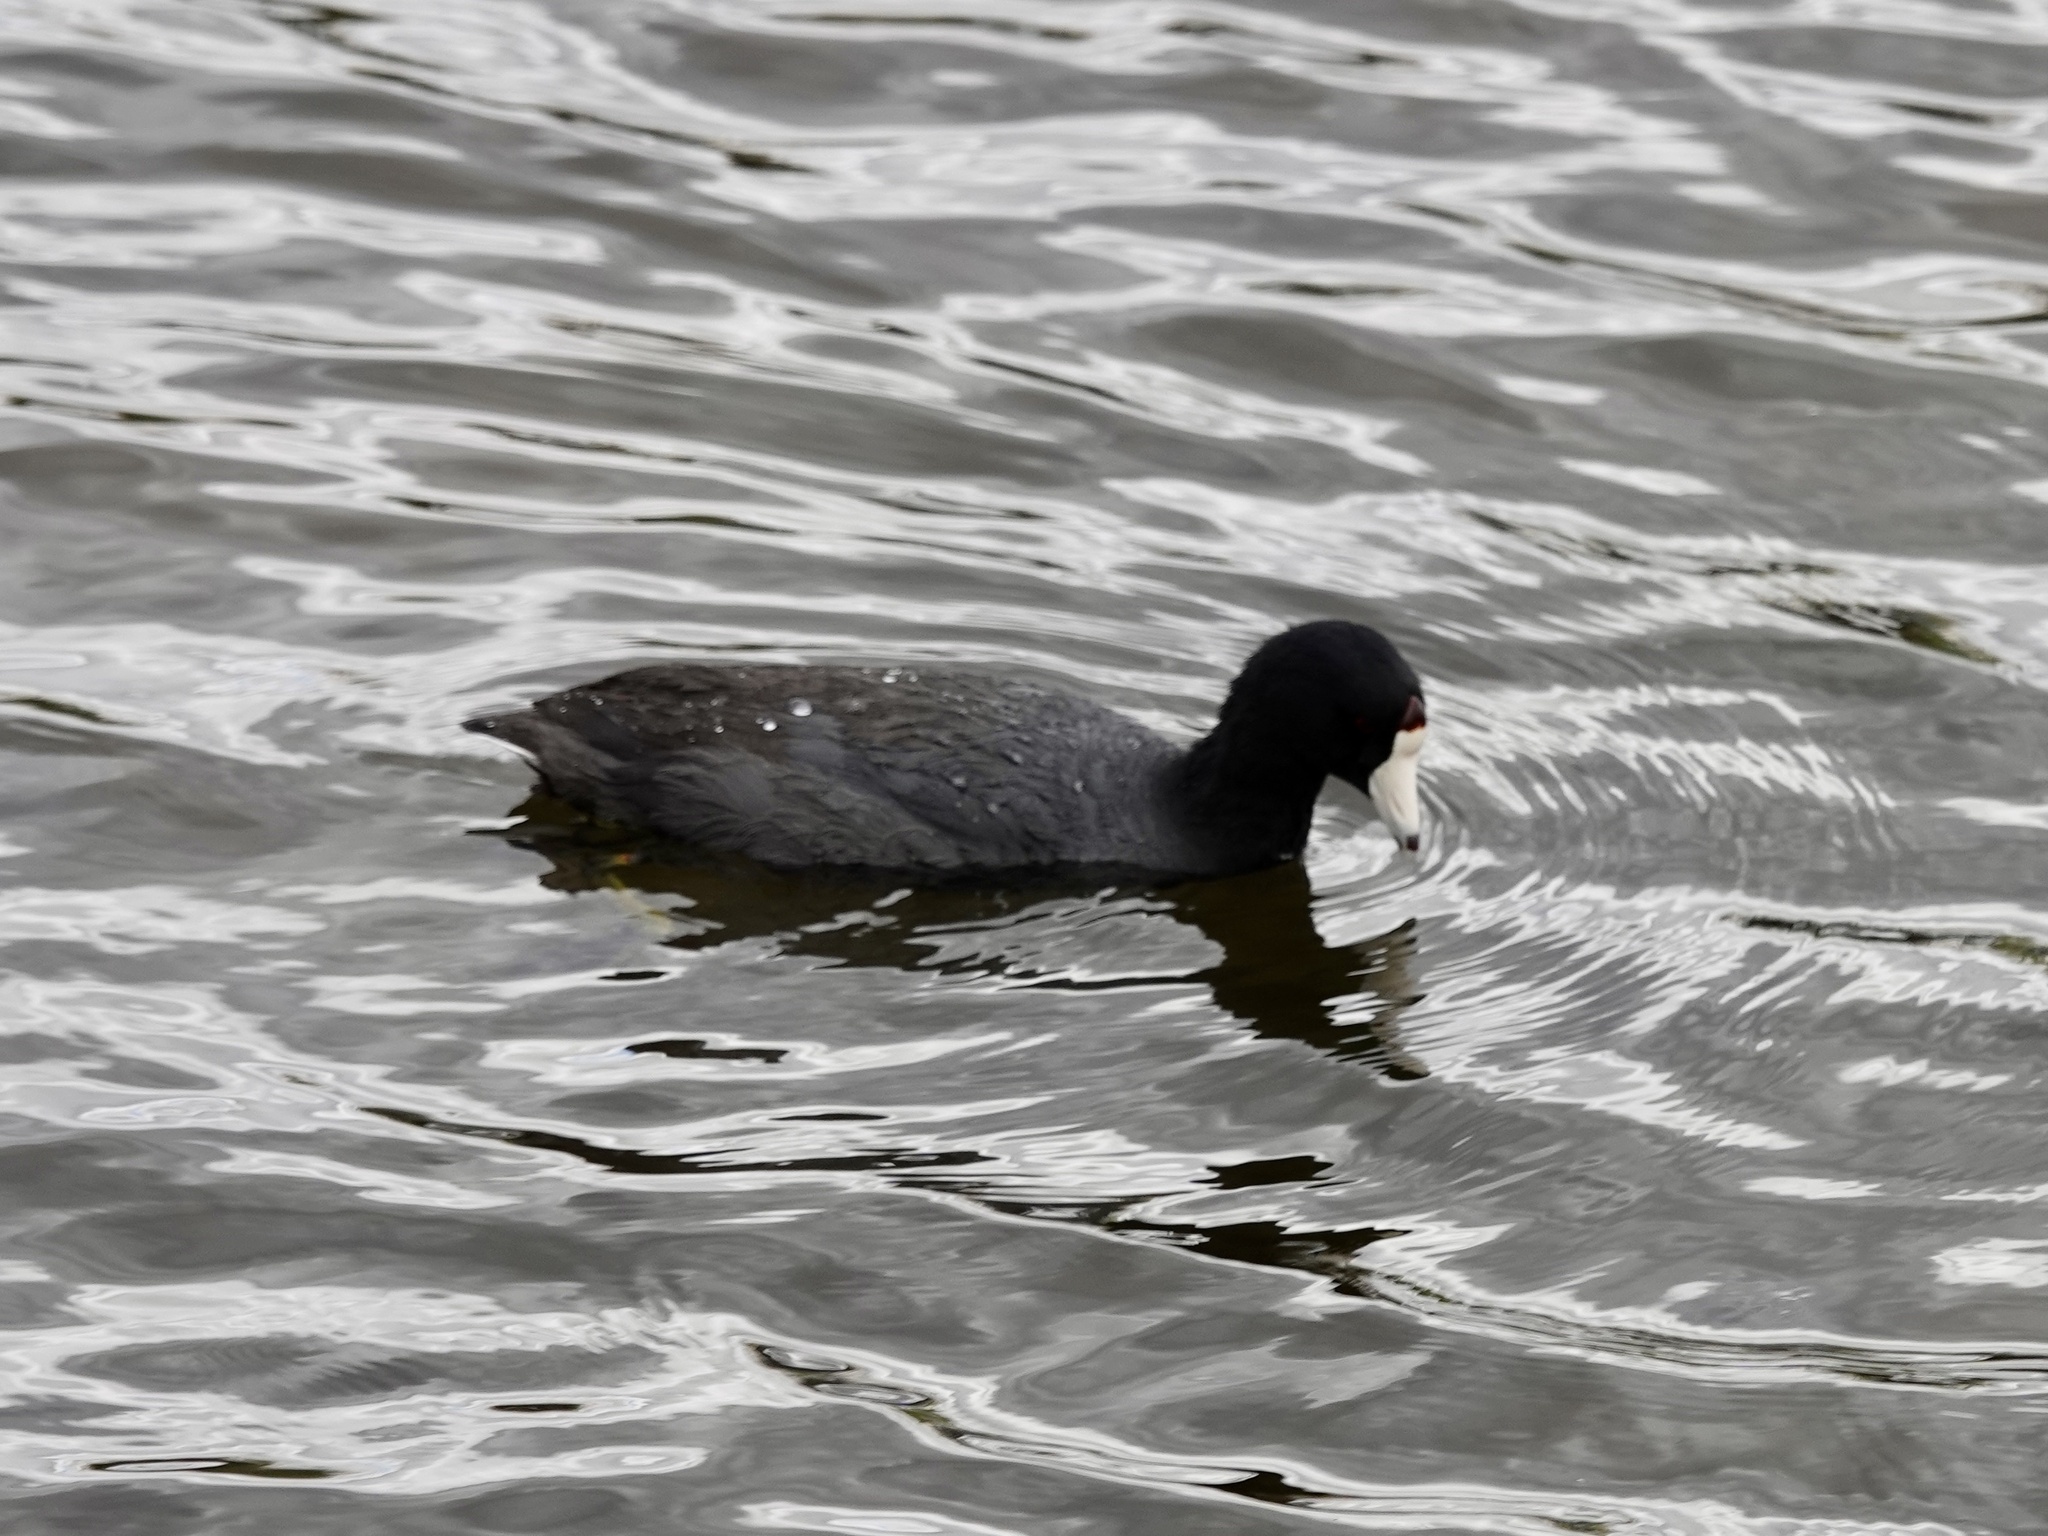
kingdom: Animalia
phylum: Chordata
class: Aves
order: Gruiformes
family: Rallidae
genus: Fulica
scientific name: Fulica americana
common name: American coot
